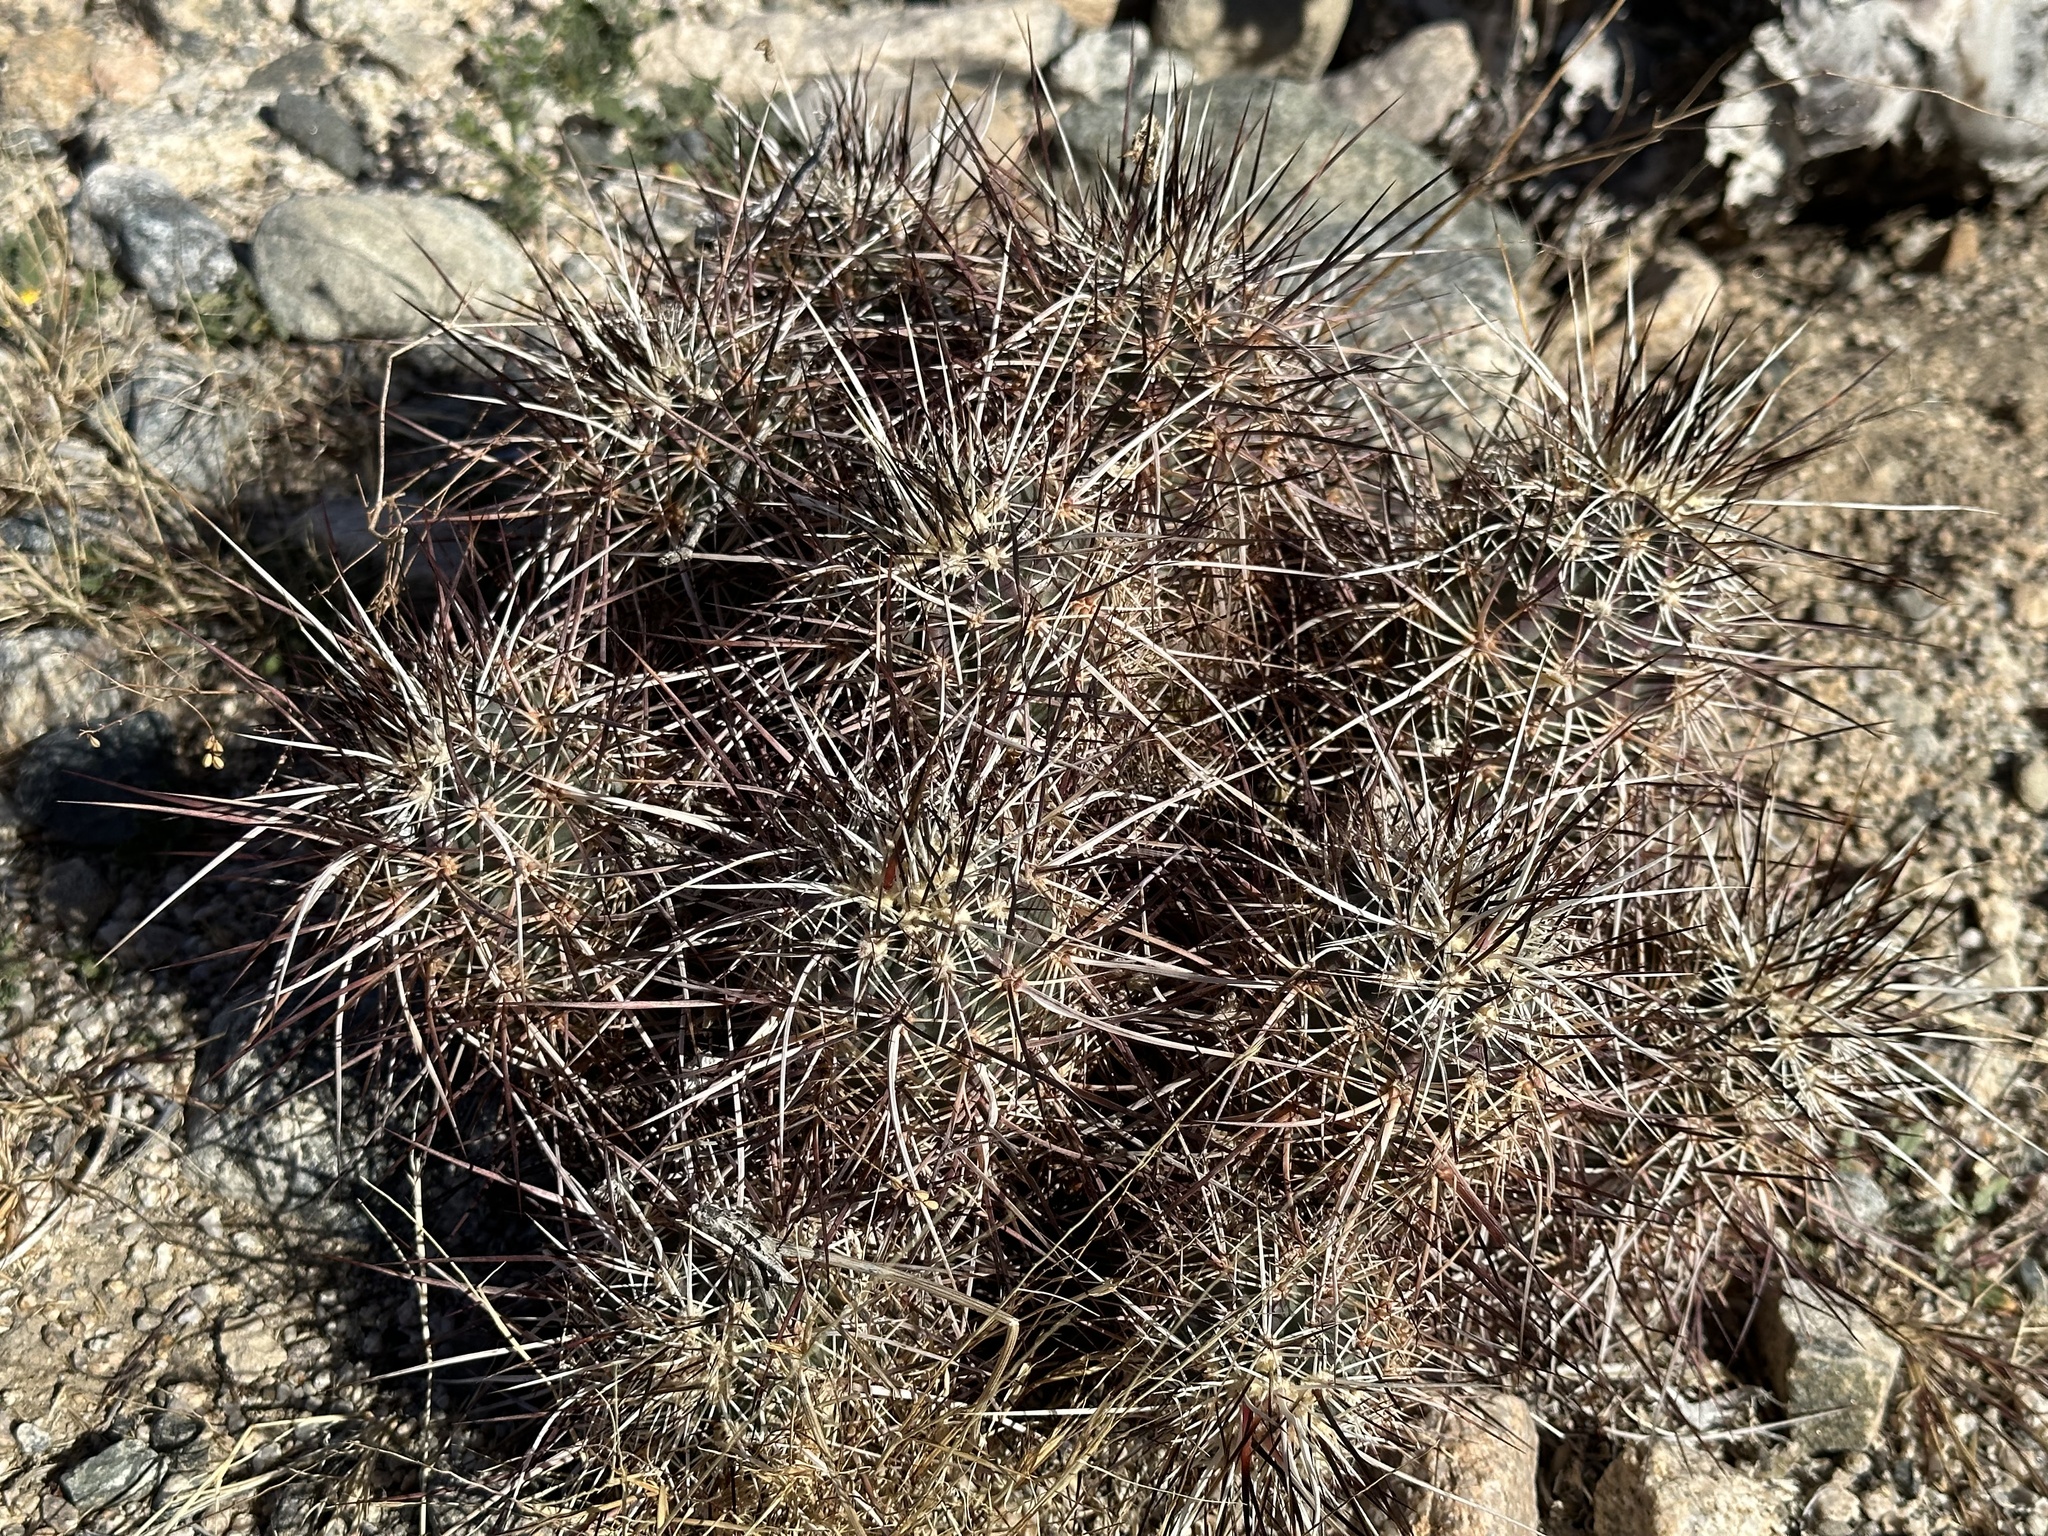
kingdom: Plantae
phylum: Tracheophyta
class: Magnoliopsida
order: Caryophyllales
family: Cactaceae
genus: Echinocereus
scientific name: Echinocereus engelmannii
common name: Engelmann's hedgehog cactus
